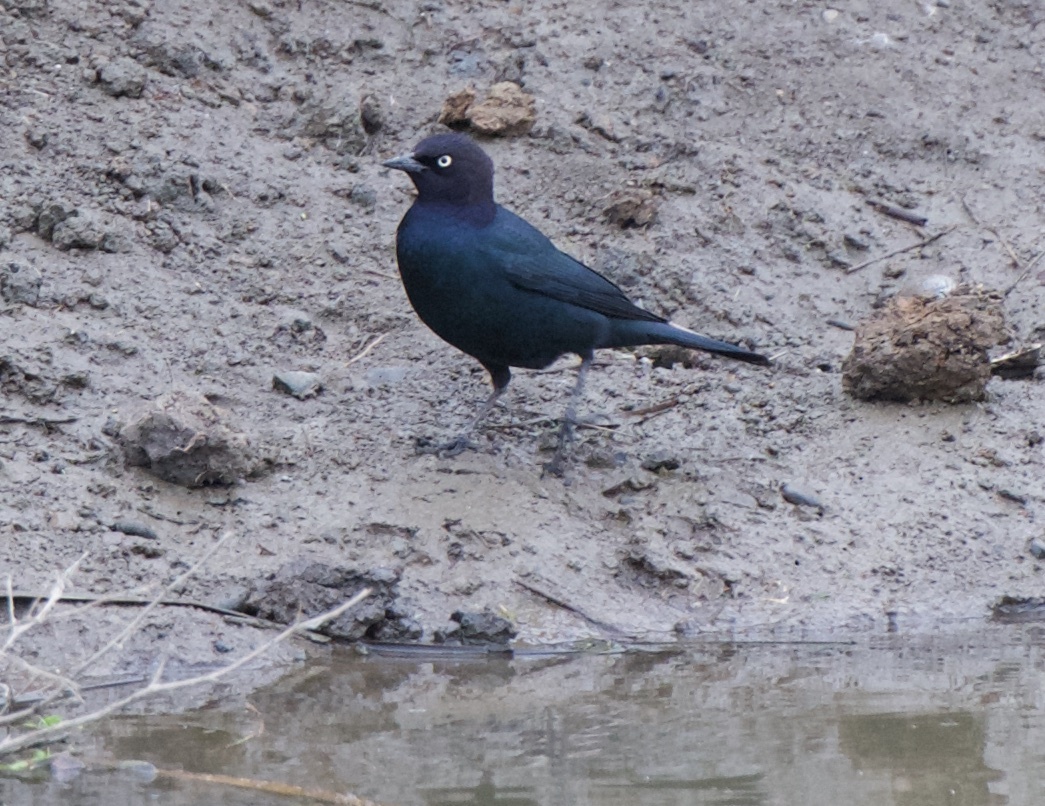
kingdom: Animalia
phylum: Chordata
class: Aves
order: Passeriformes
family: Icteridae
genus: Euphagus
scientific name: Euphagus cyanocephalus
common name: Brewer's blackbird
